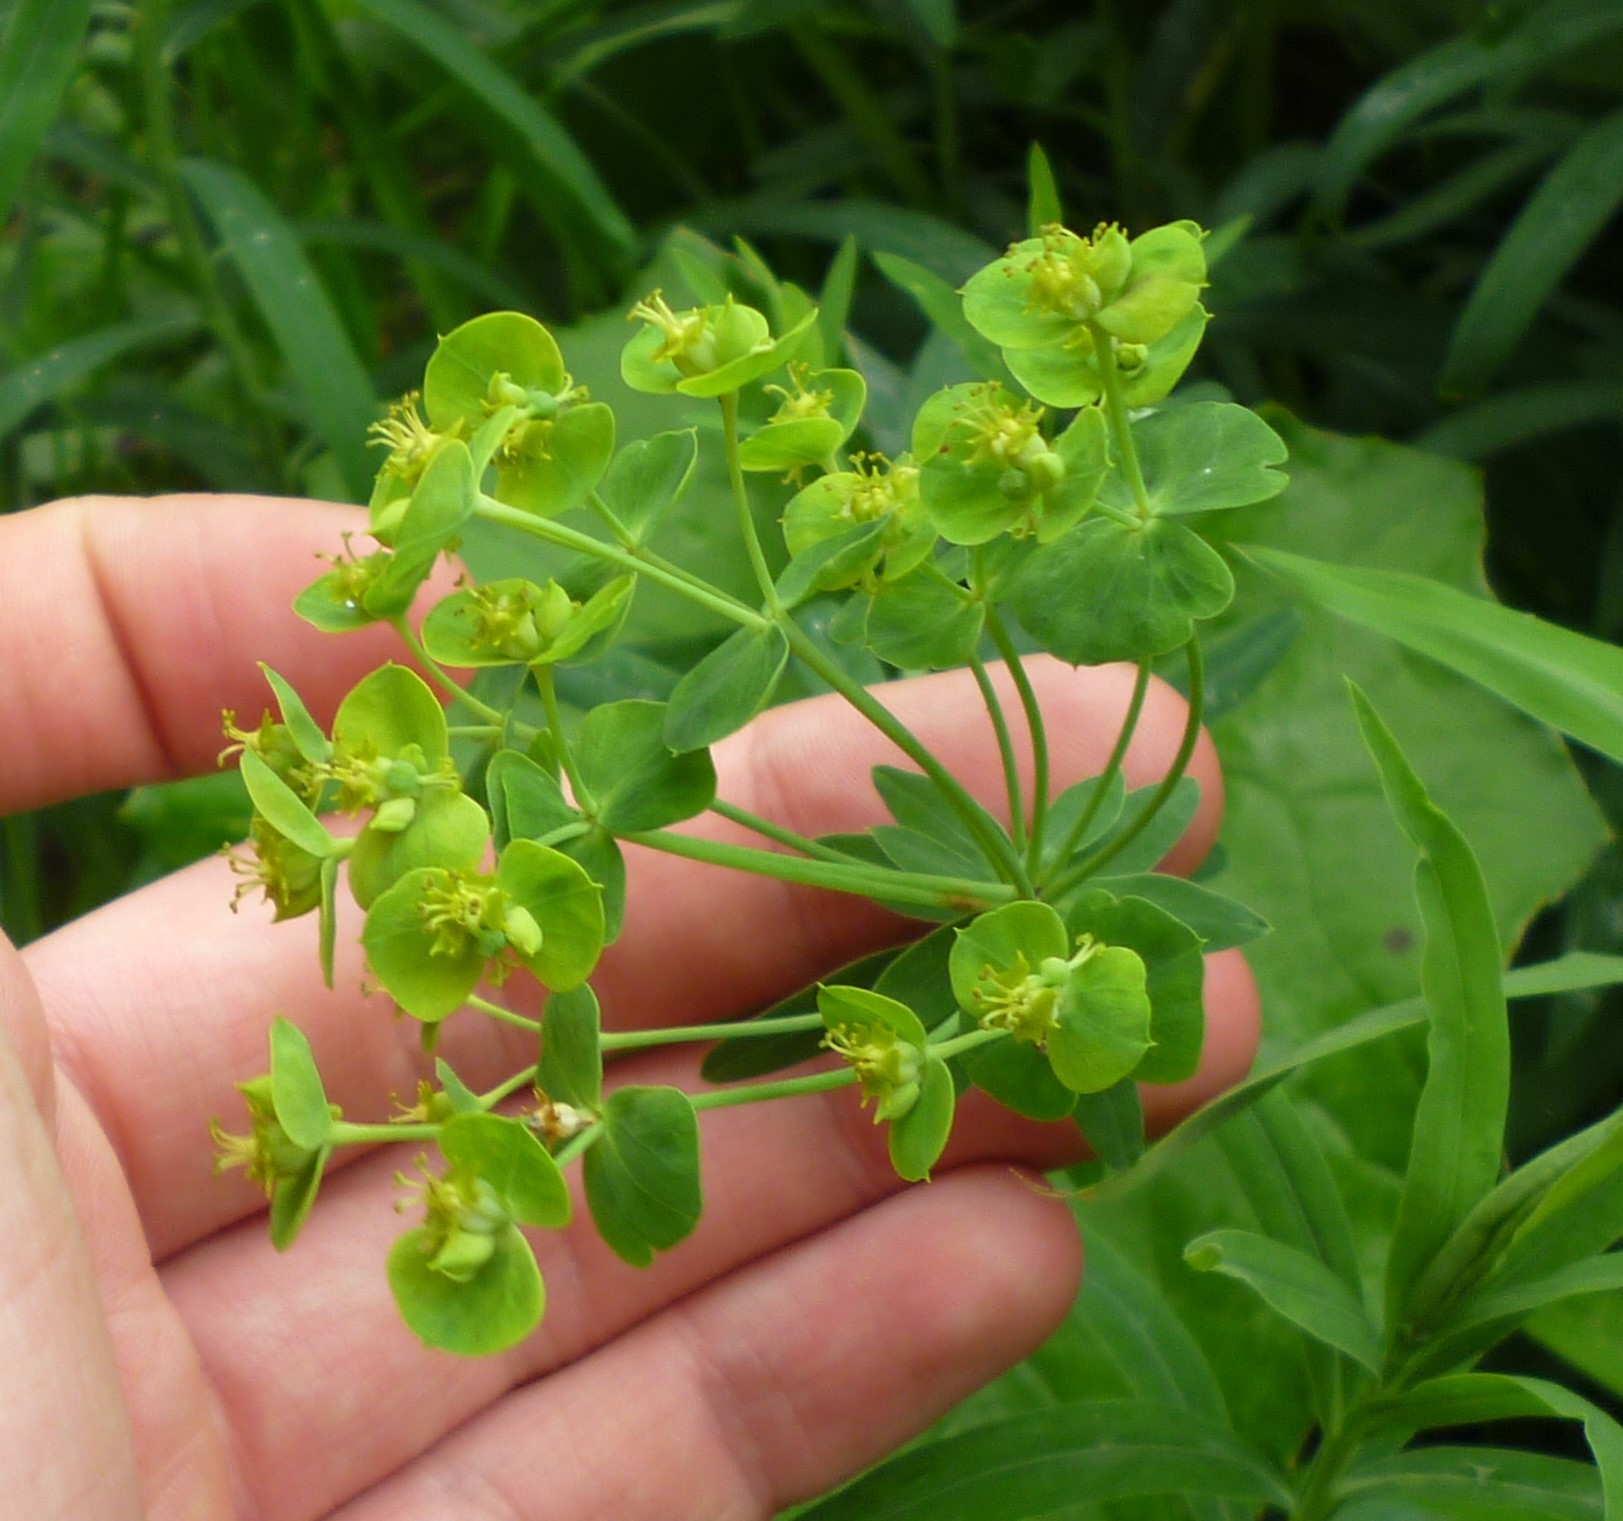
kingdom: Plantae
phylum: Tracheophyta
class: Magnoliopsida
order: Malpighiales
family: Euphorbiaceae
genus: Euphorbia
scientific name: Euphorbia virgata
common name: Leafy spurge
